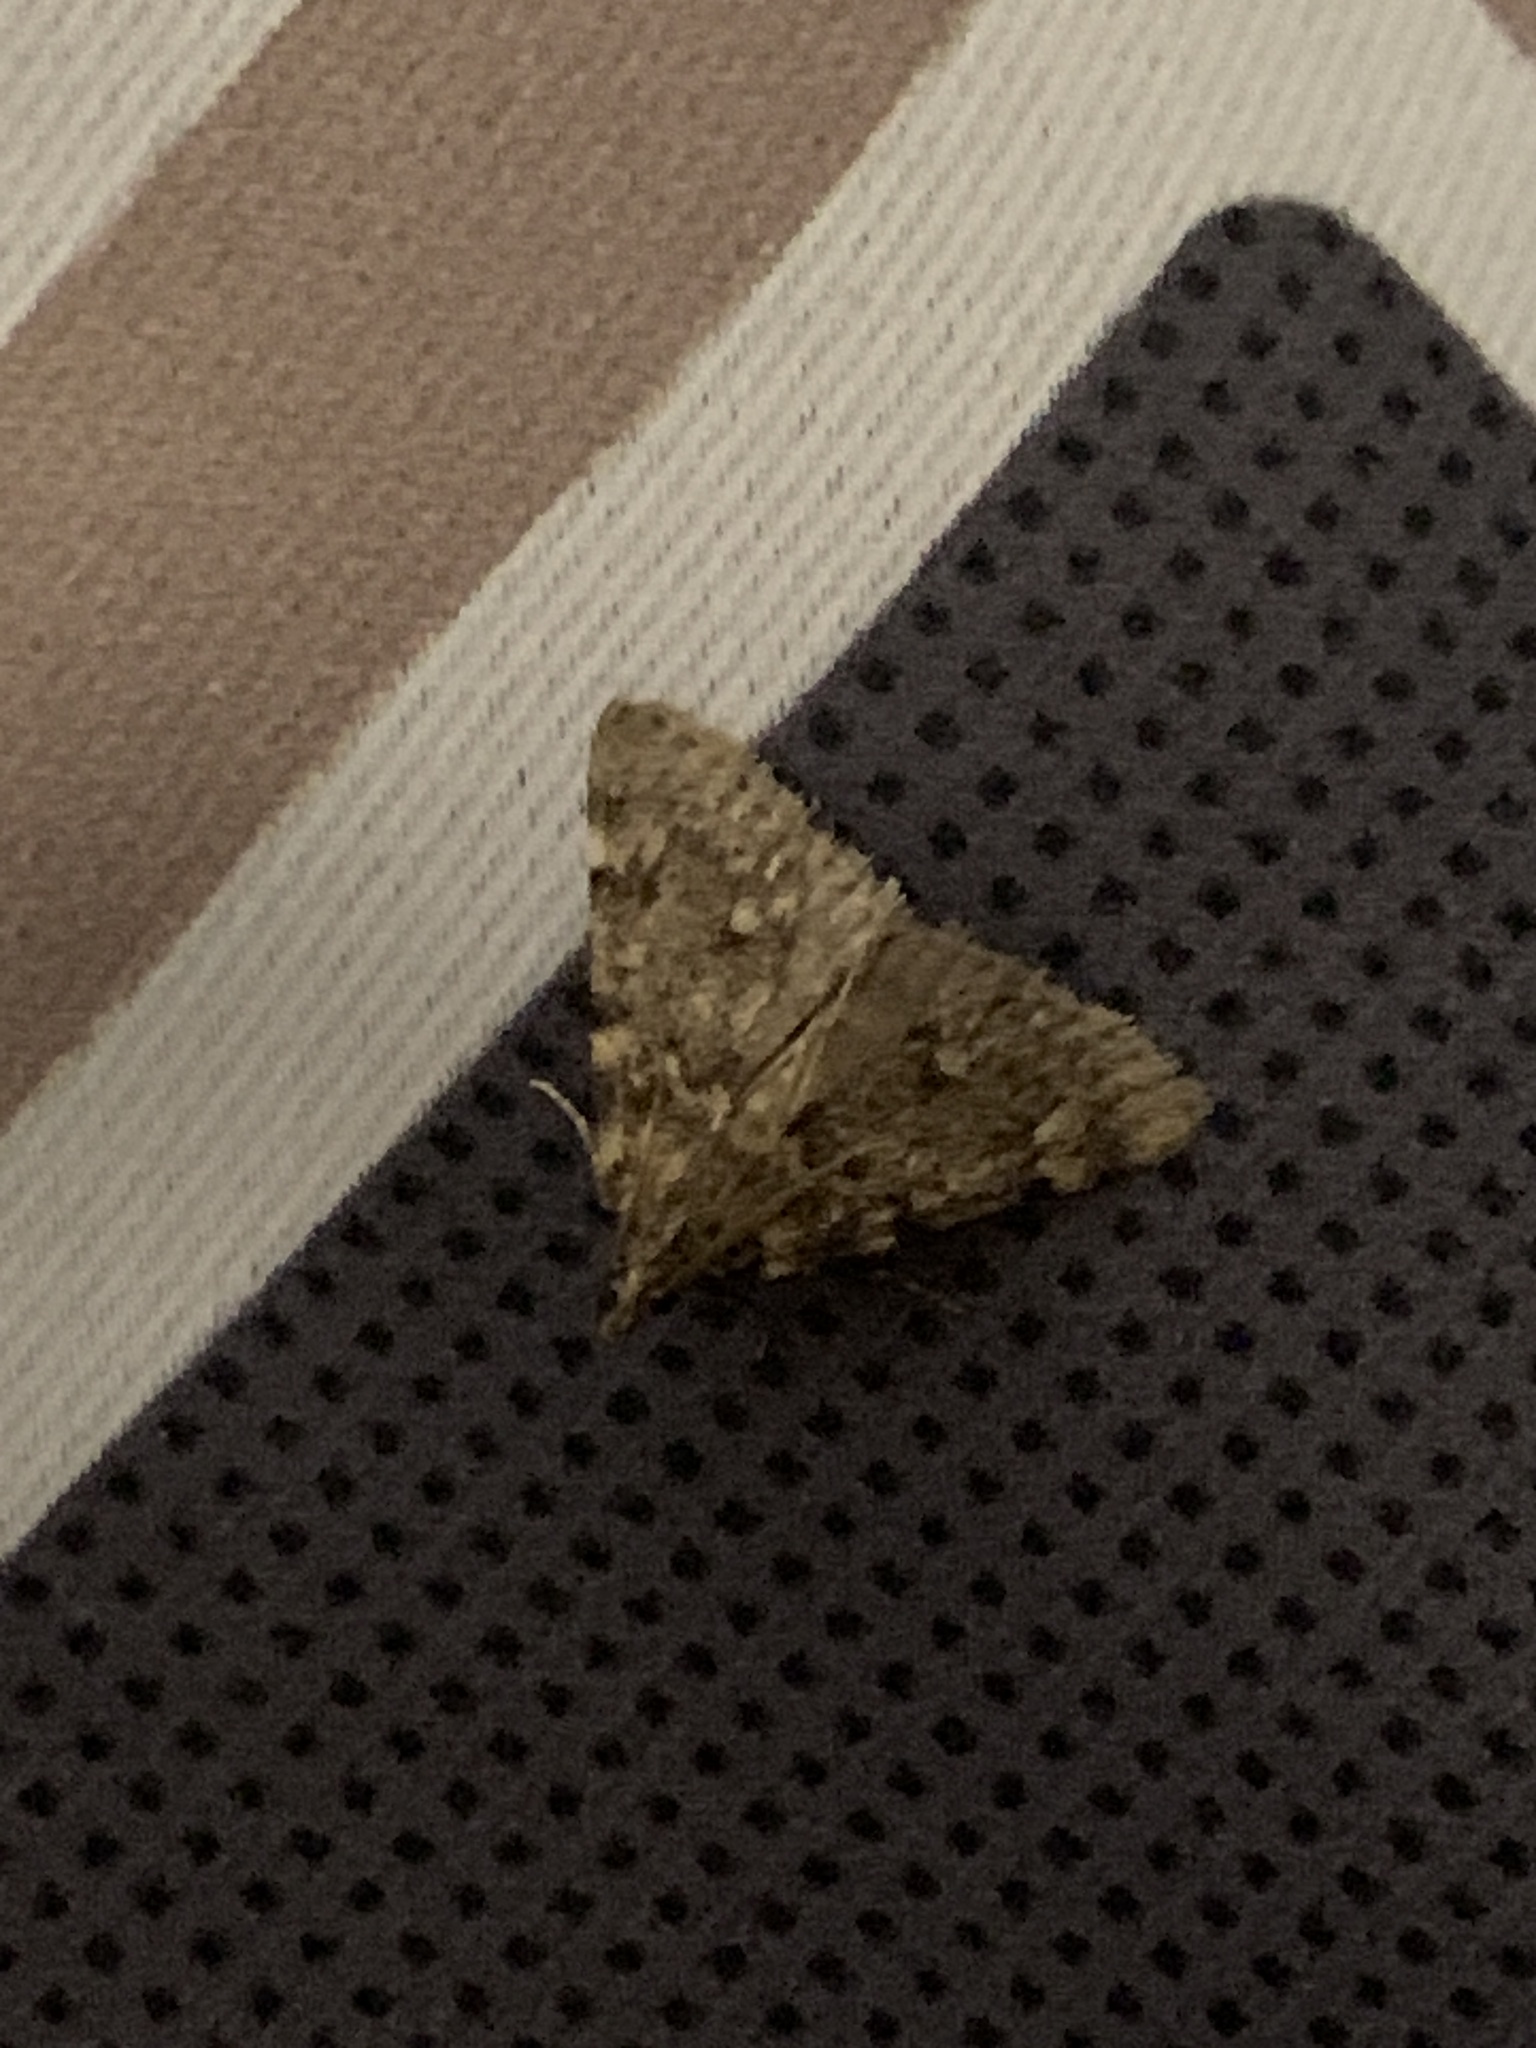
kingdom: Animalia
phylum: Arthropoda
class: Insecta
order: Lepidoptera
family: Pyralidae
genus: Aglossa
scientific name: Aglossa pinguinalis
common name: Large tabby
